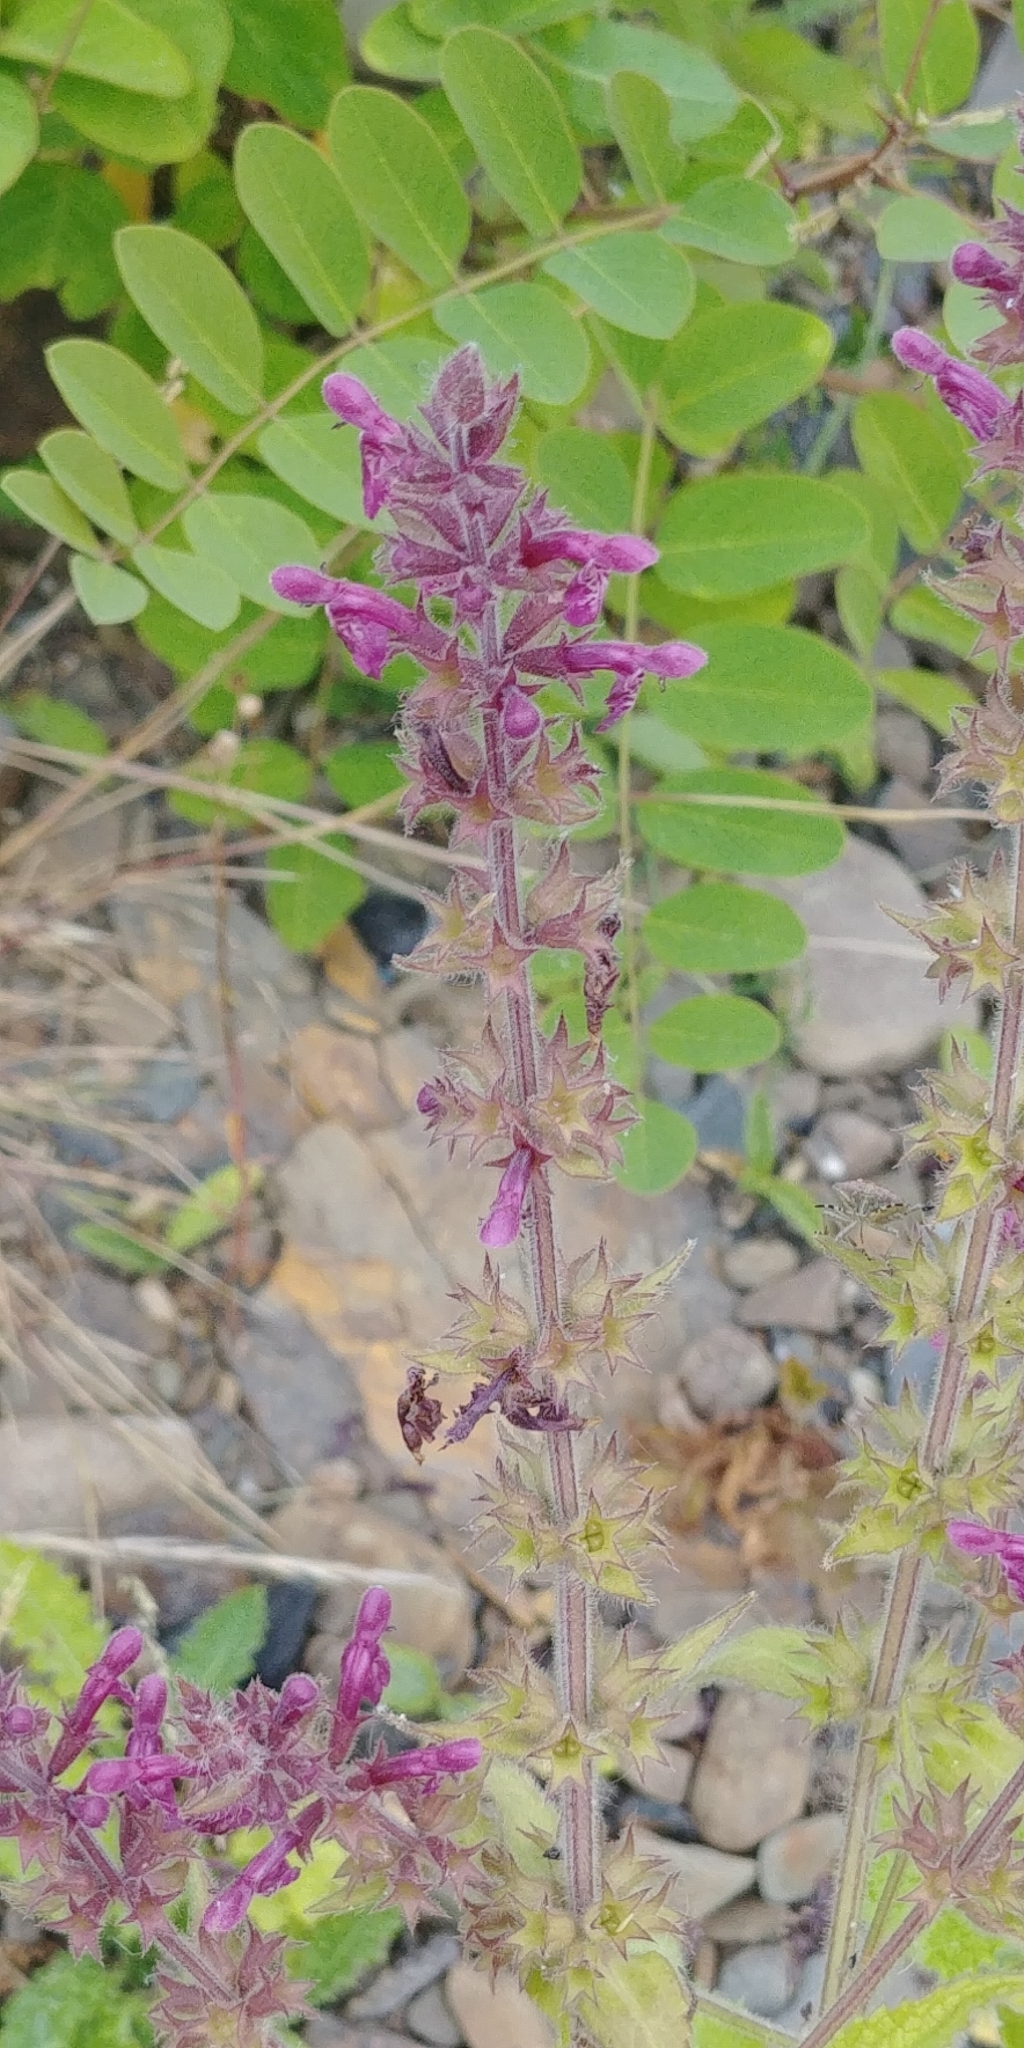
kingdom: Plantae
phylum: Tracheophyta
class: Magnoliopsida
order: Lamiales
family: Lamiaceae
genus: Stachys
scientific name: Stachys sylvatica
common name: Hedge woundwort
